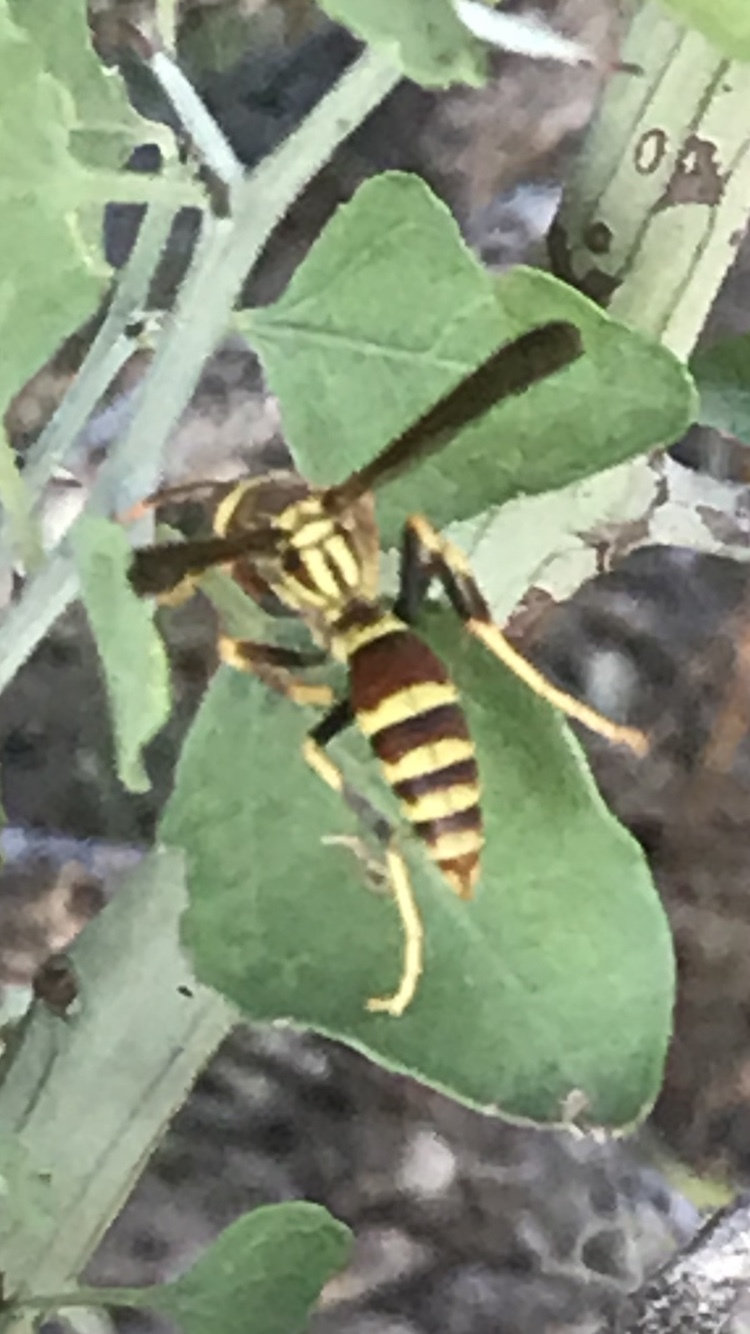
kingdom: Animalia
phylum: Arthropoda
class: Insecta
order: Hymenoptera
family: Eumenidae
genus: Polistes
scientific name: Polistes exclamans
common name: Paper wasp
